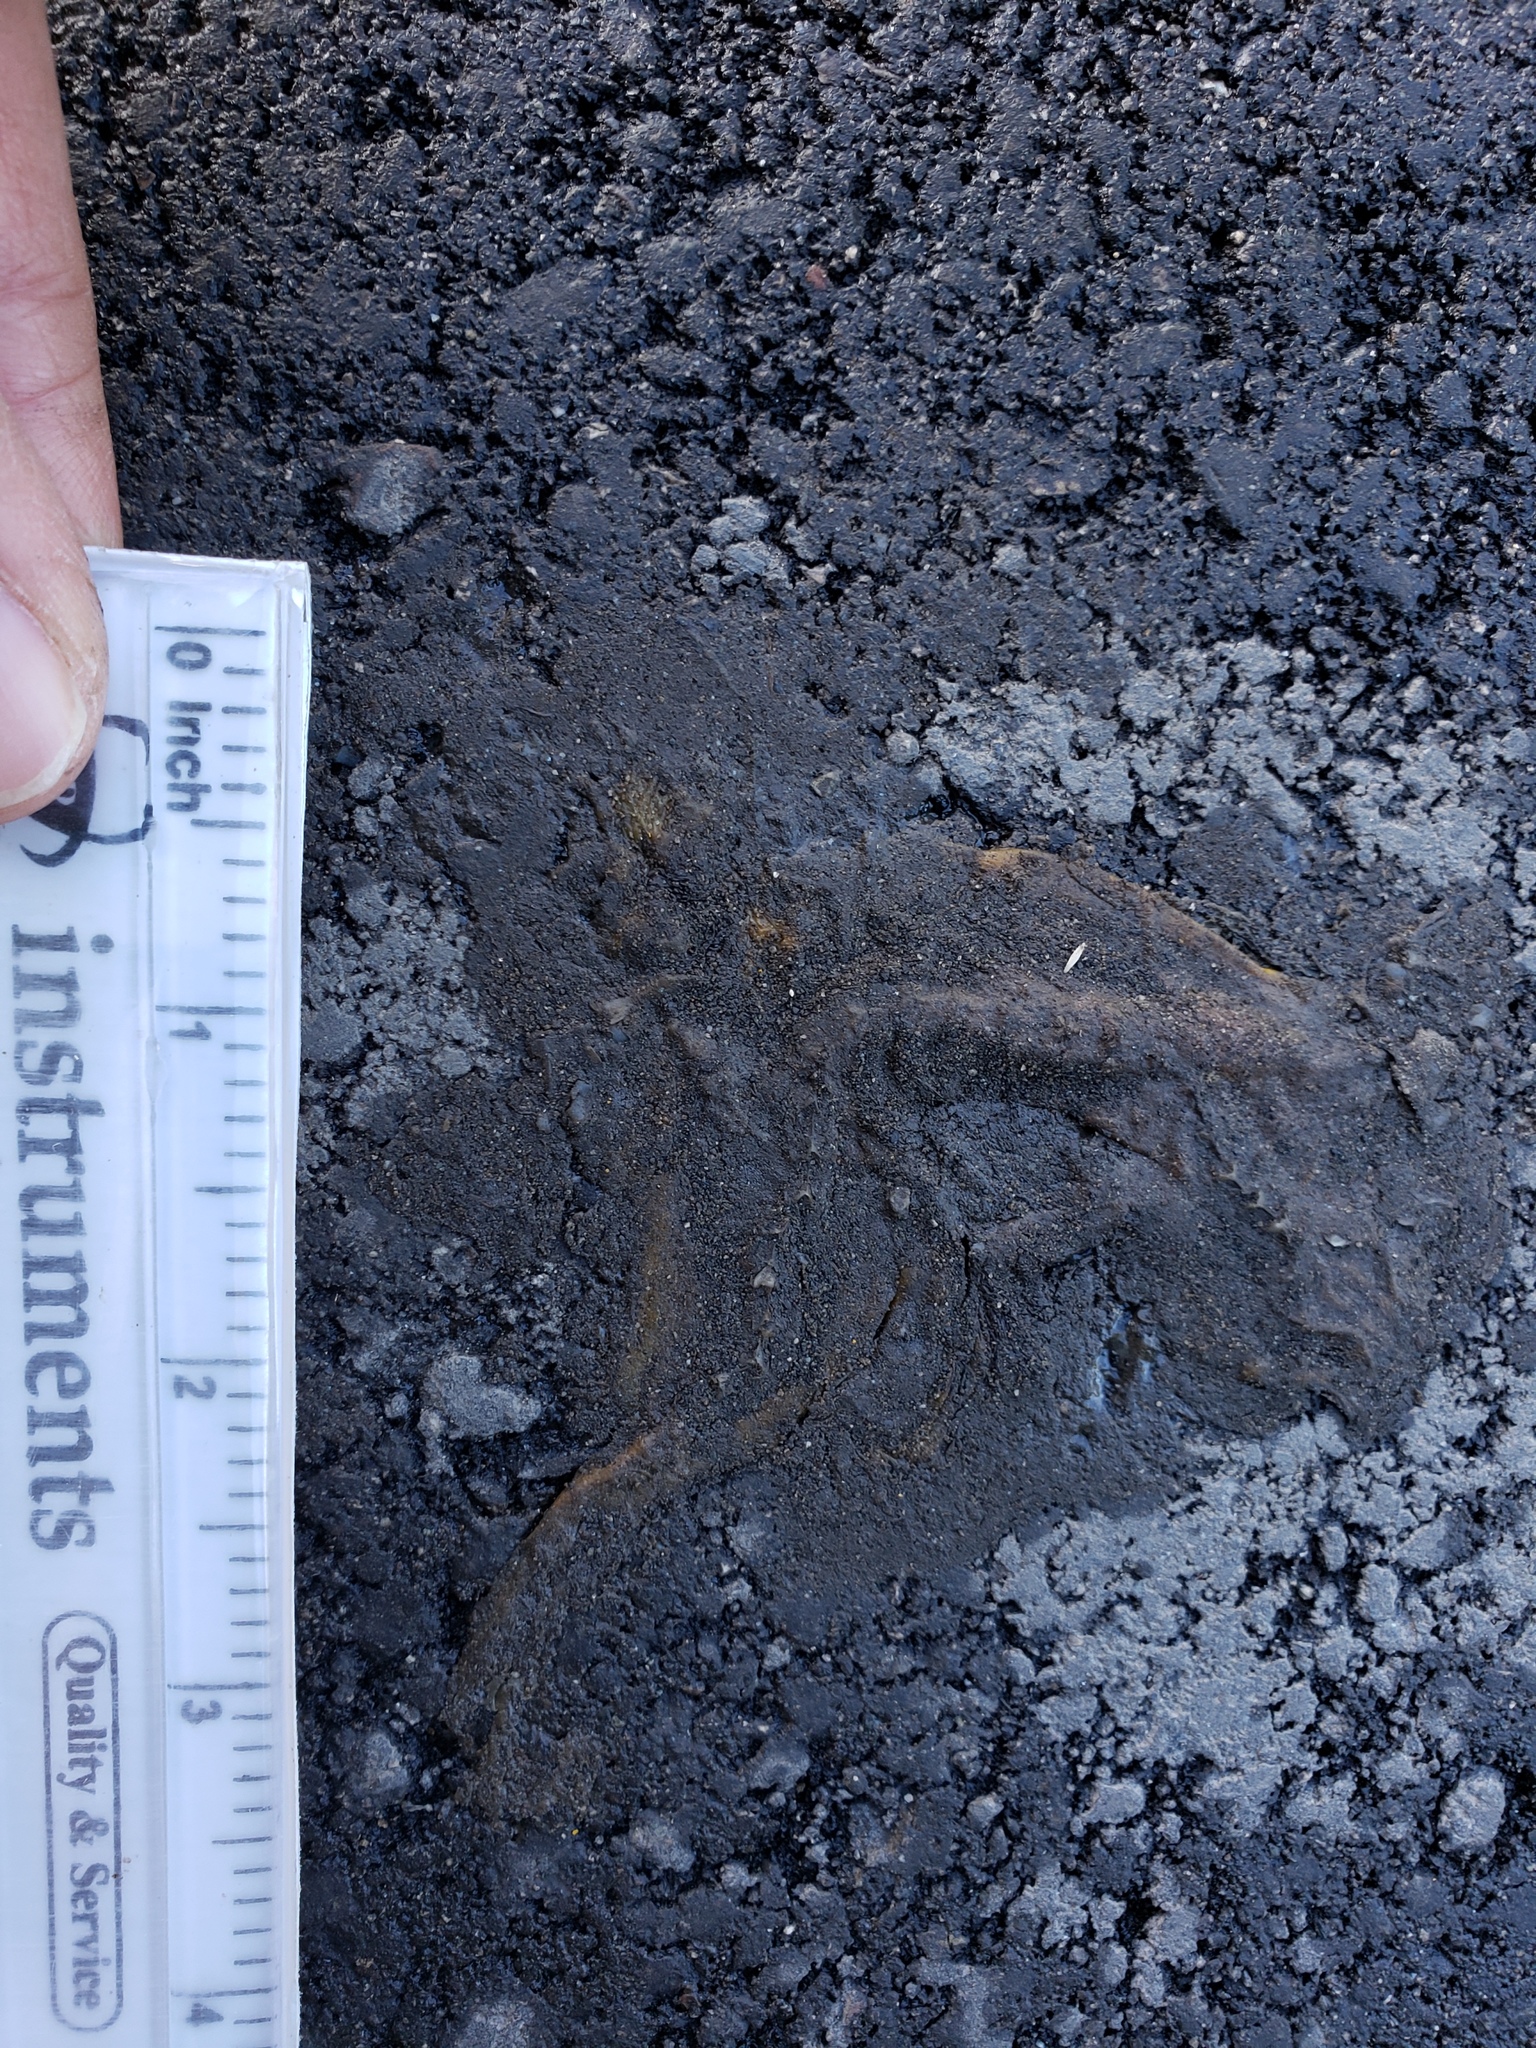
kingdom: Animalia
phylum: Chordata
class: Amphibia
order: Caudata
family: Salamandridae
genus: Taricha
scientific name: Taricha
